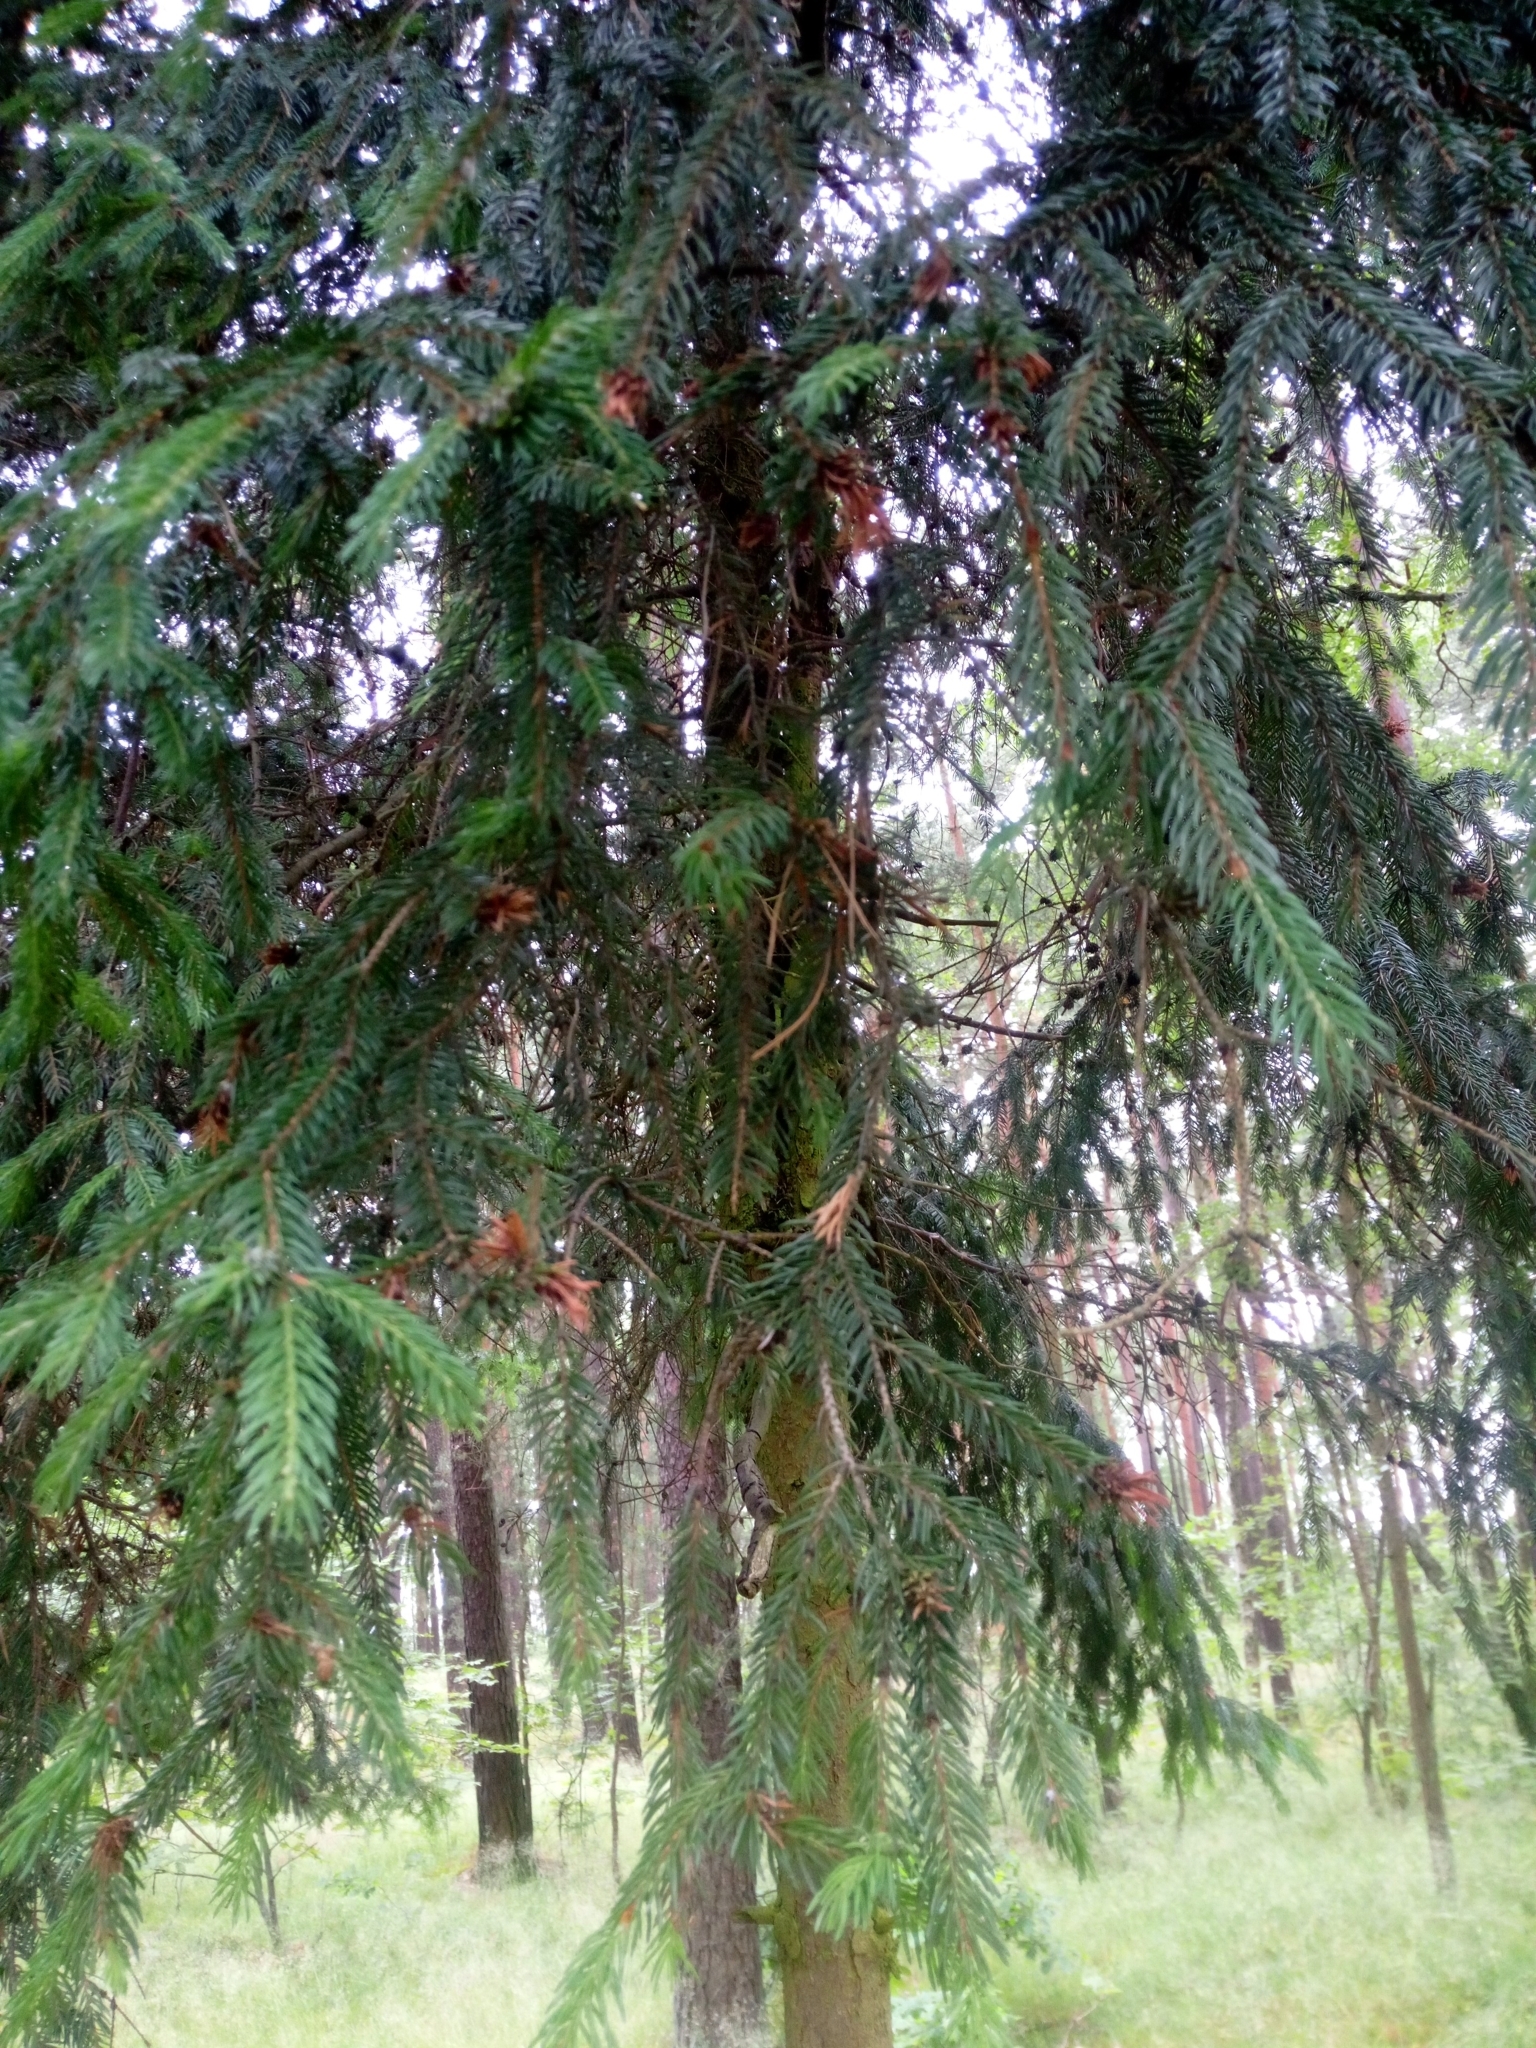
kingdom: Plantae
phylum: Tracheophyta
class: Pinopsida
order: Pinales
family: Pinaceae
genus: Picea
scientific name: Picea abies
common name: Norway spruce
